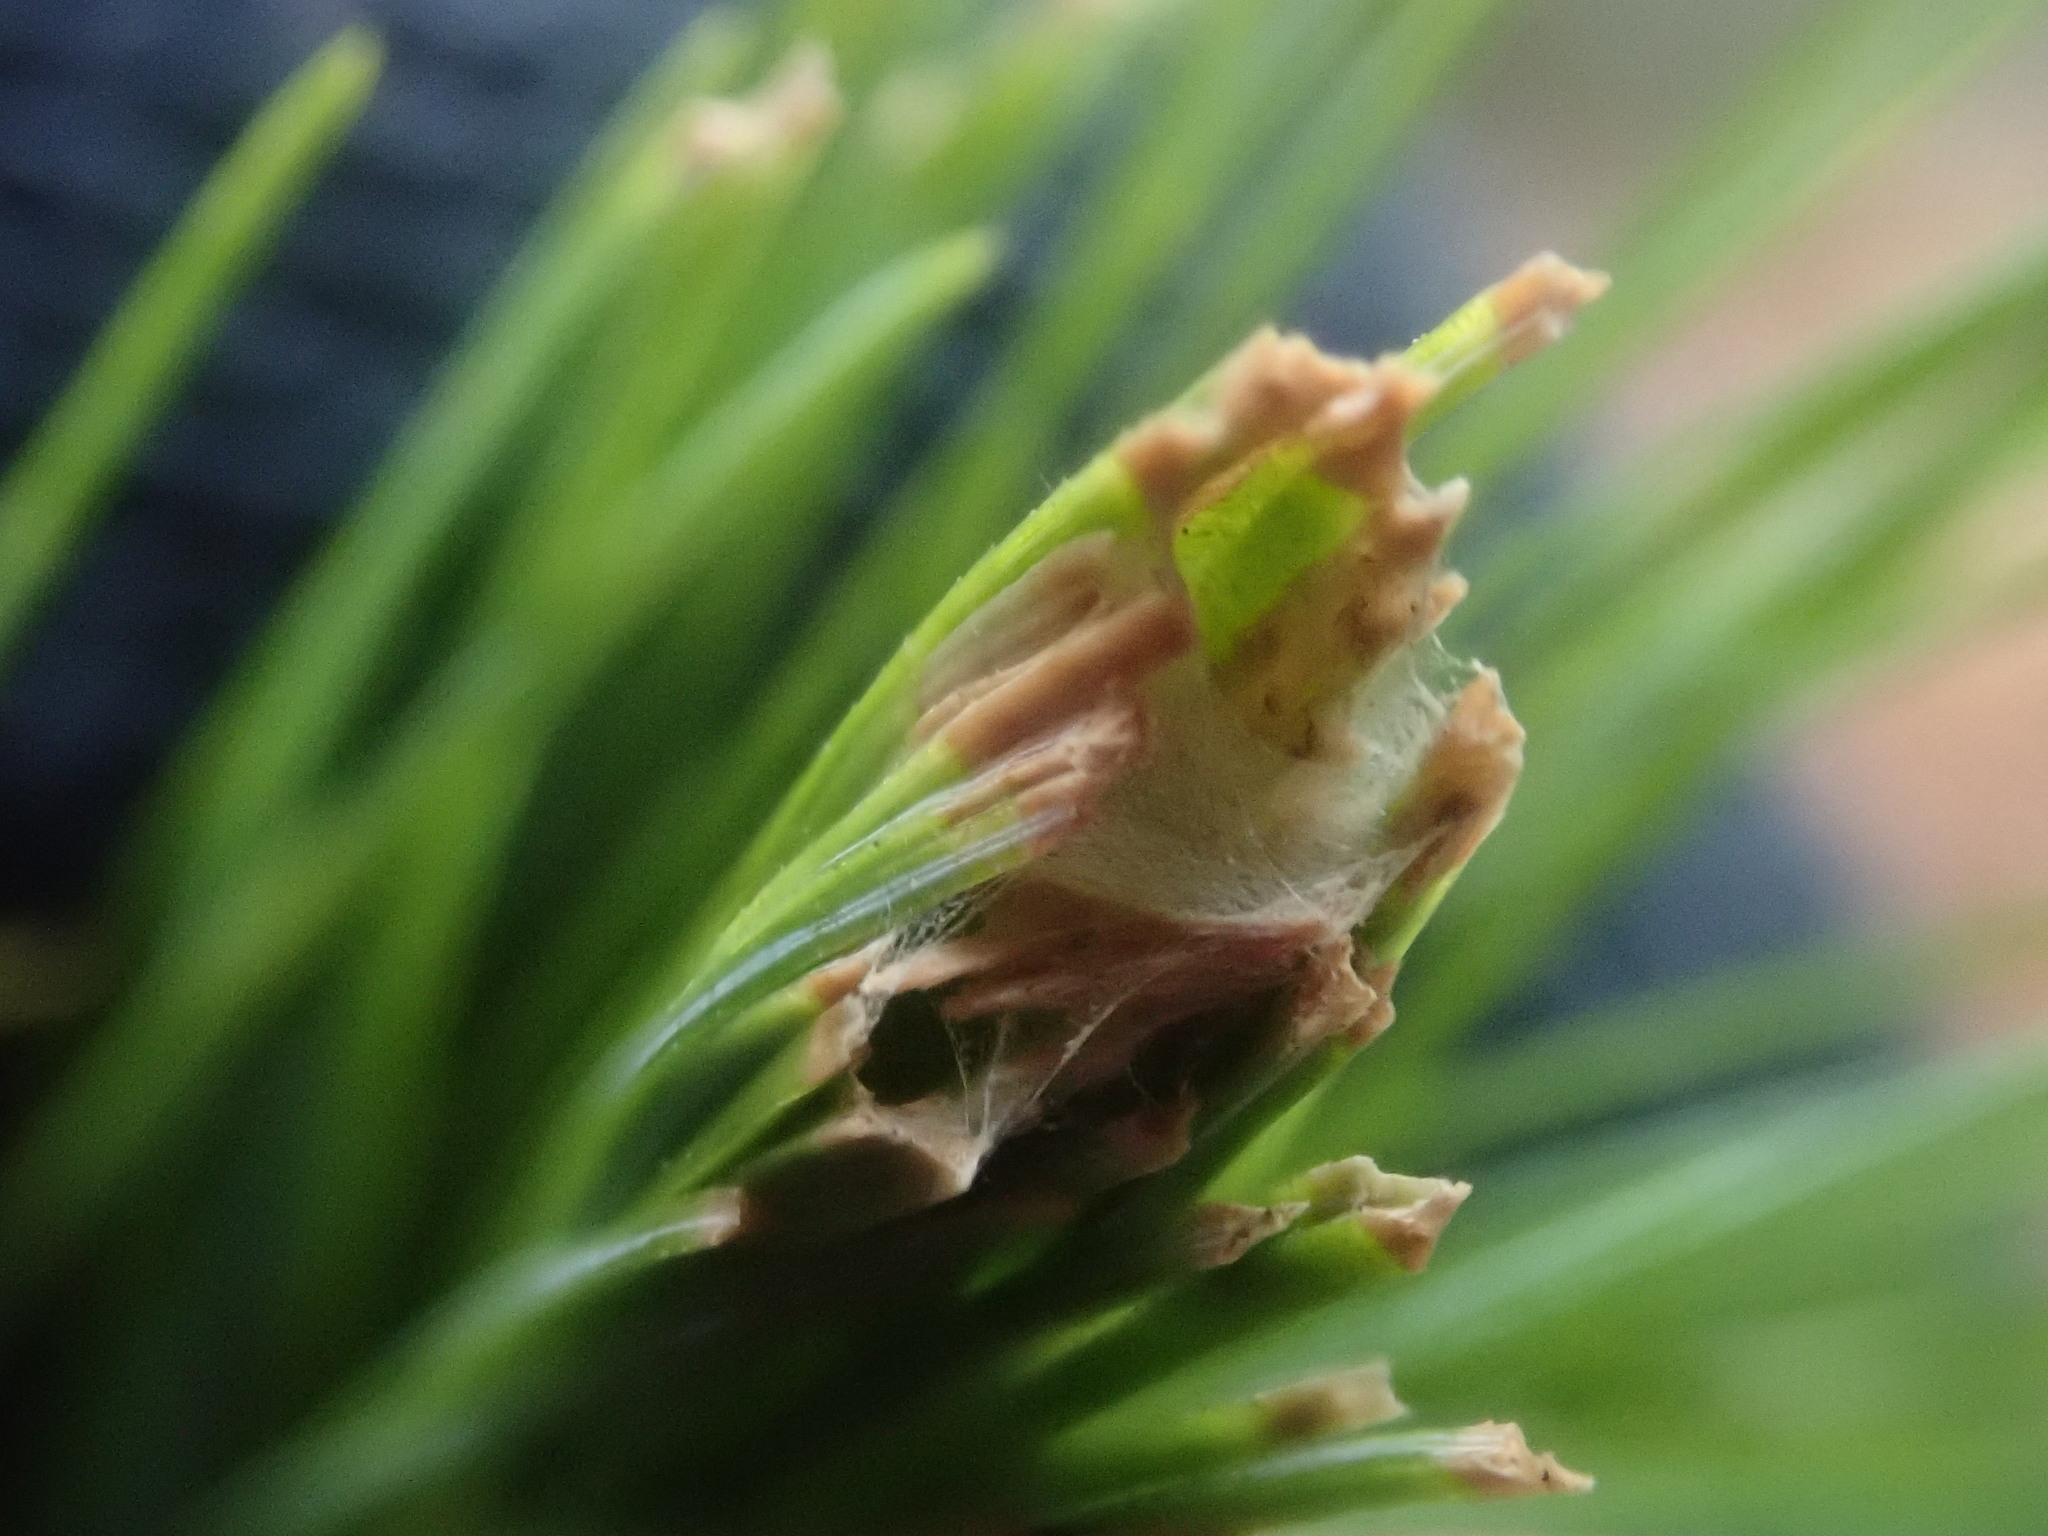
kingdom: Animalia
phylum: Arthropoda
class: Insecta
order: Lepidoptera
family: Tortricidae
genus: Argyrotaenia
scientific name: Argyrotaenia pinatubana
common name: Pine tube moth
